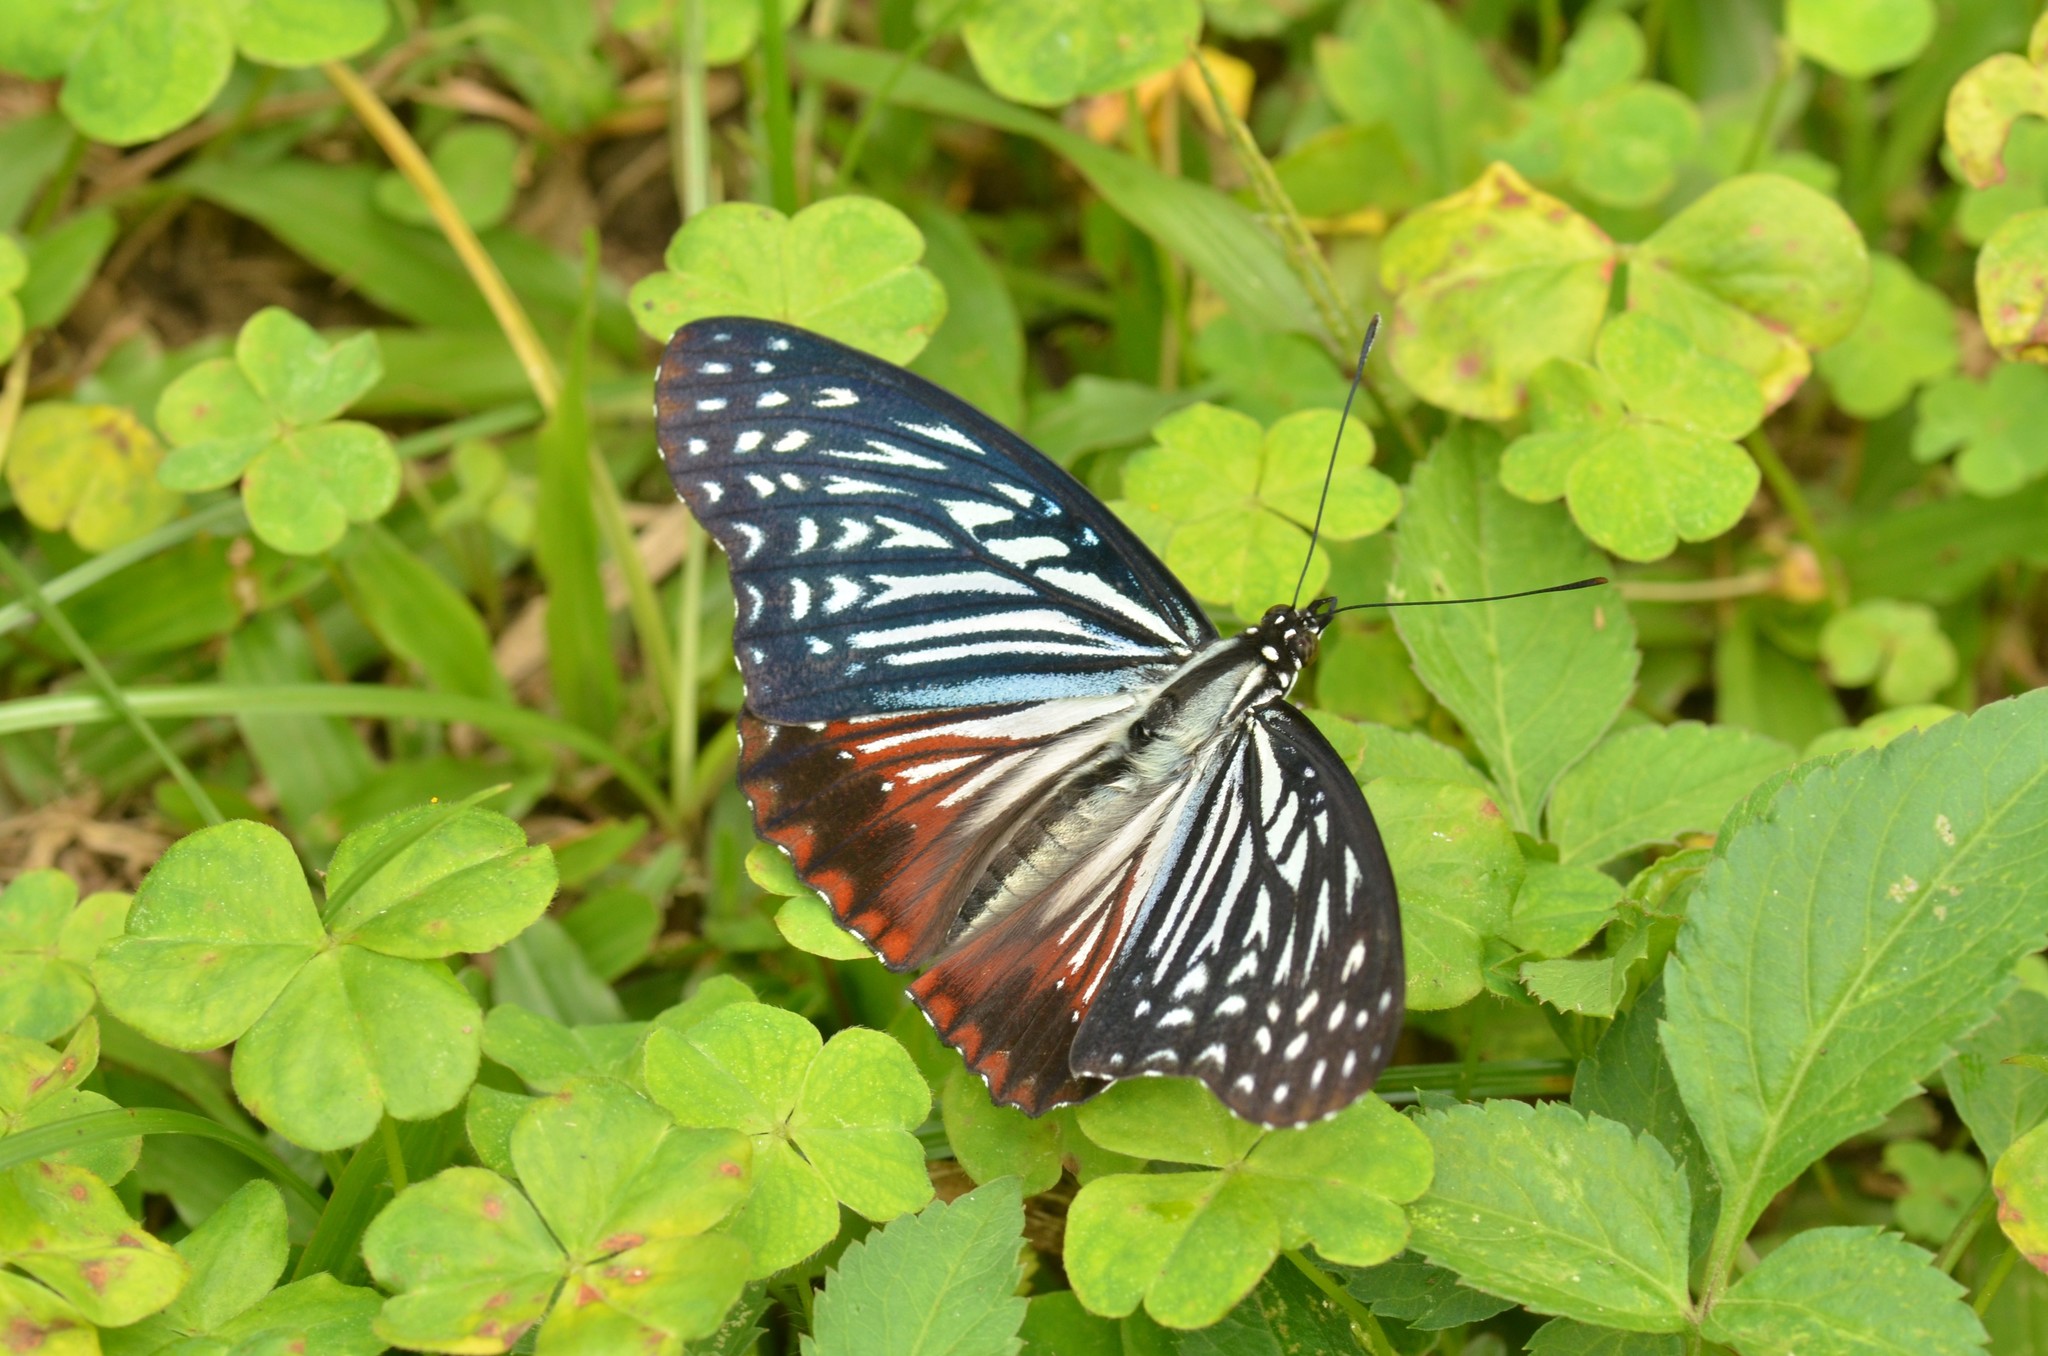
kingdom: Animalia
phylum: Arthropoda
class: Insecta
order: Lepidoptera
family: Nymphalidae
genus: Hestinalis
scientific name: Hestinalis nama
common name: Circe
